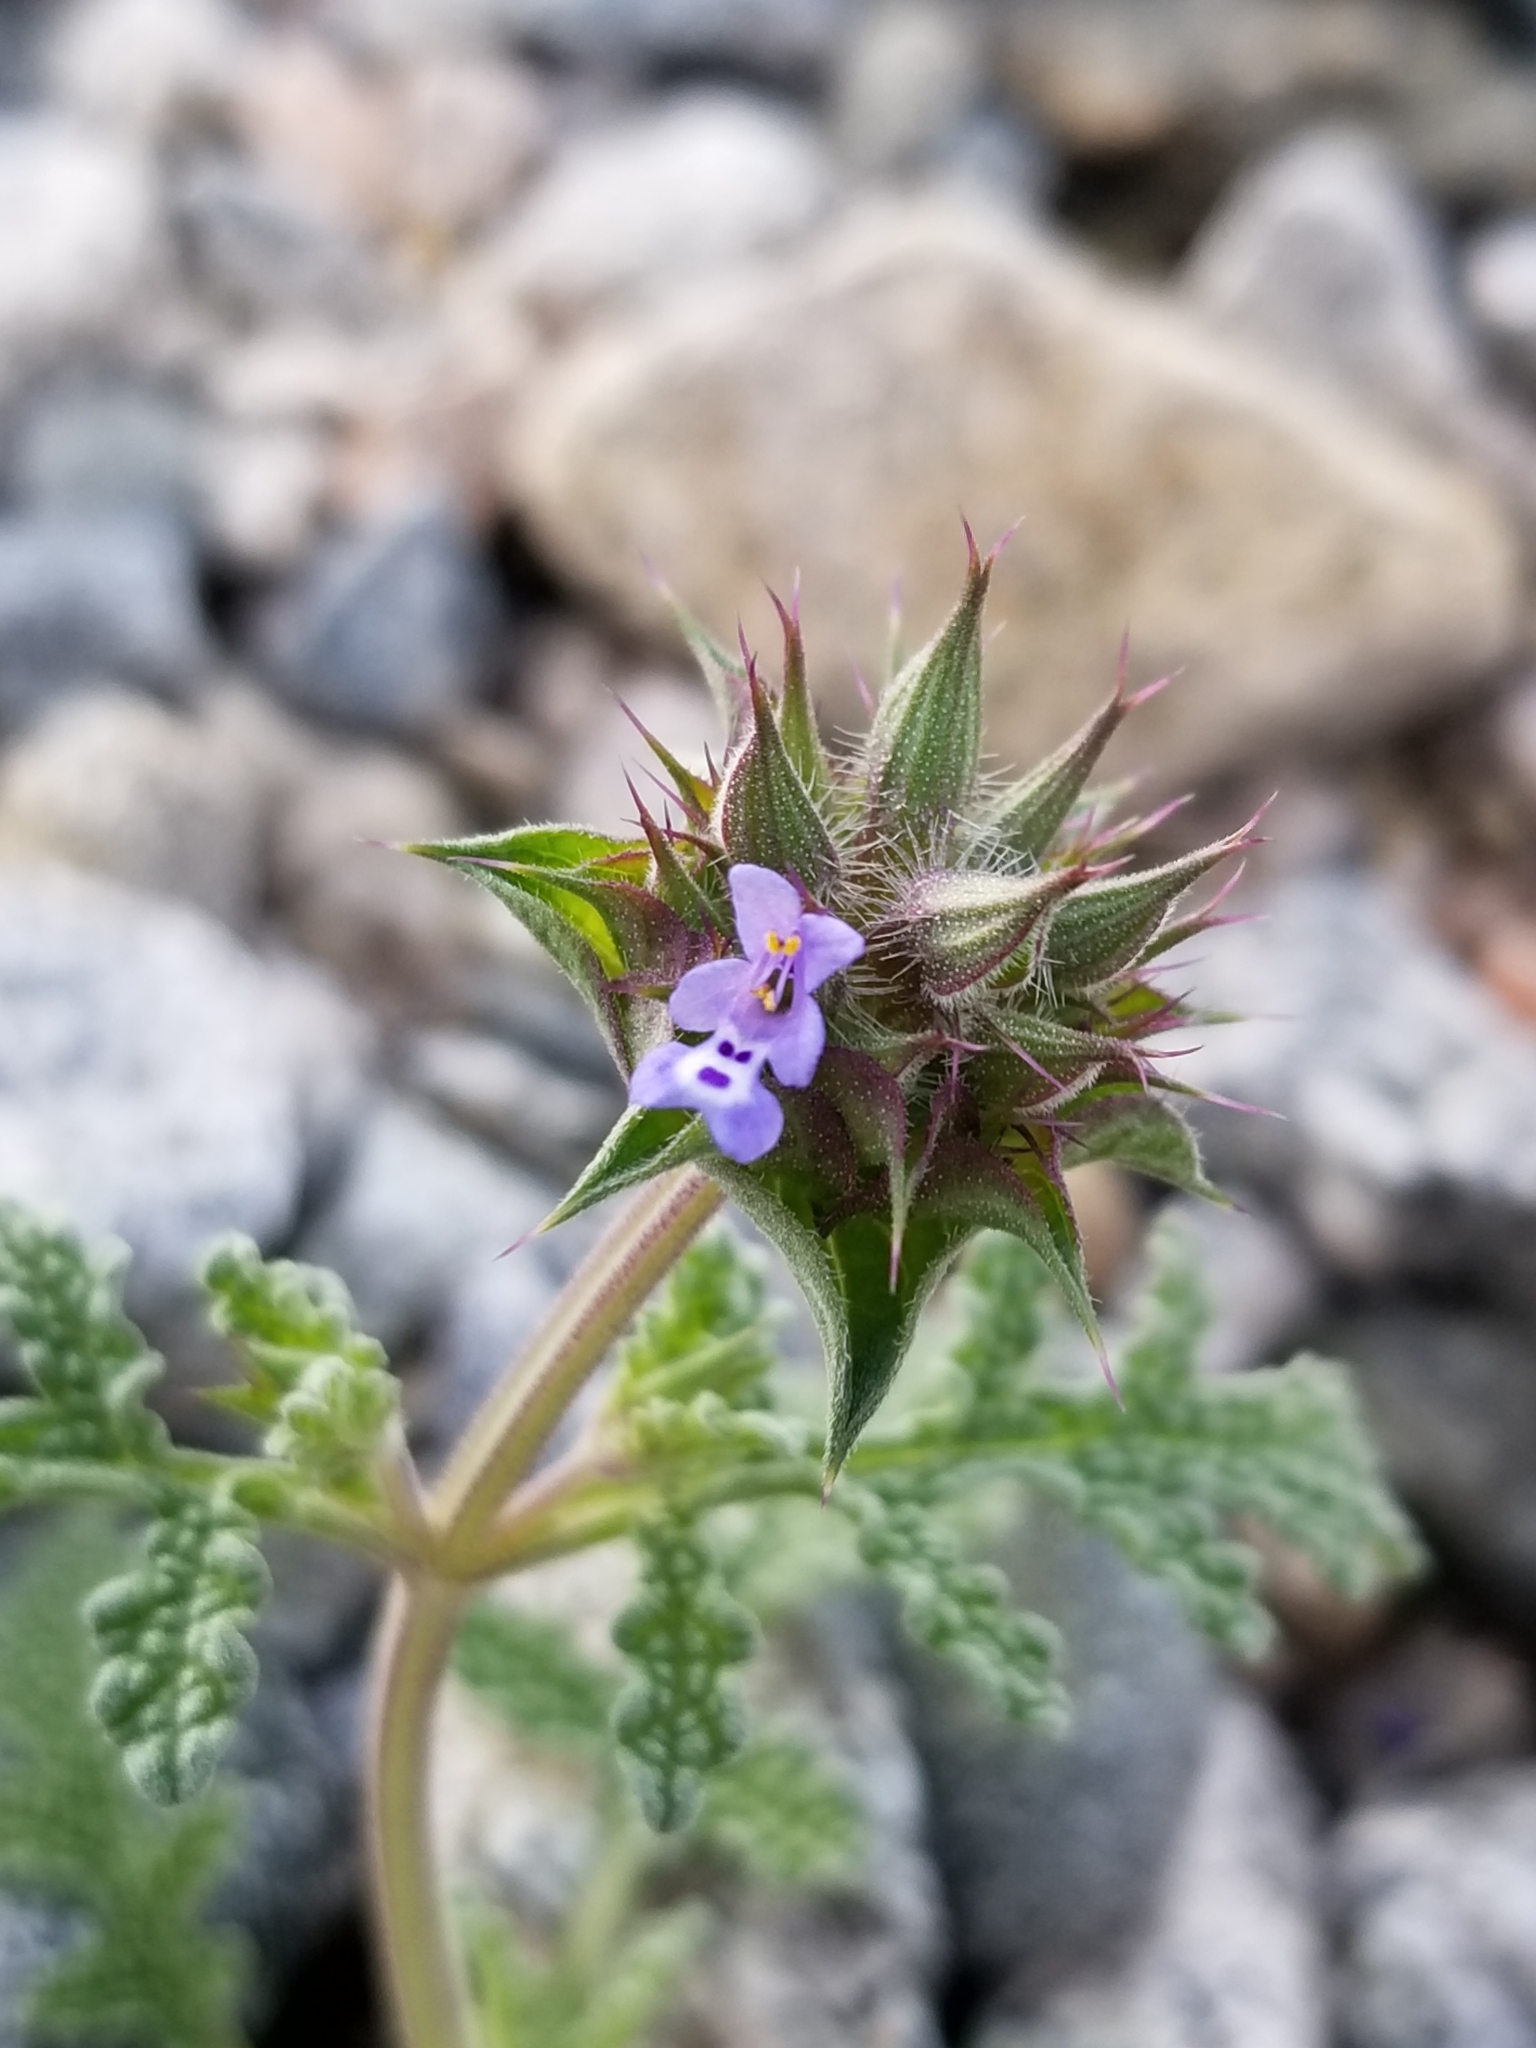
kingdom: Plantae
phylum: Tracheophyta
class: Magnoliopsida
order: Lamiales
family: Lamiaceae
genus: Salvia
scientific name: Salvia columbariae
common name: Chia
